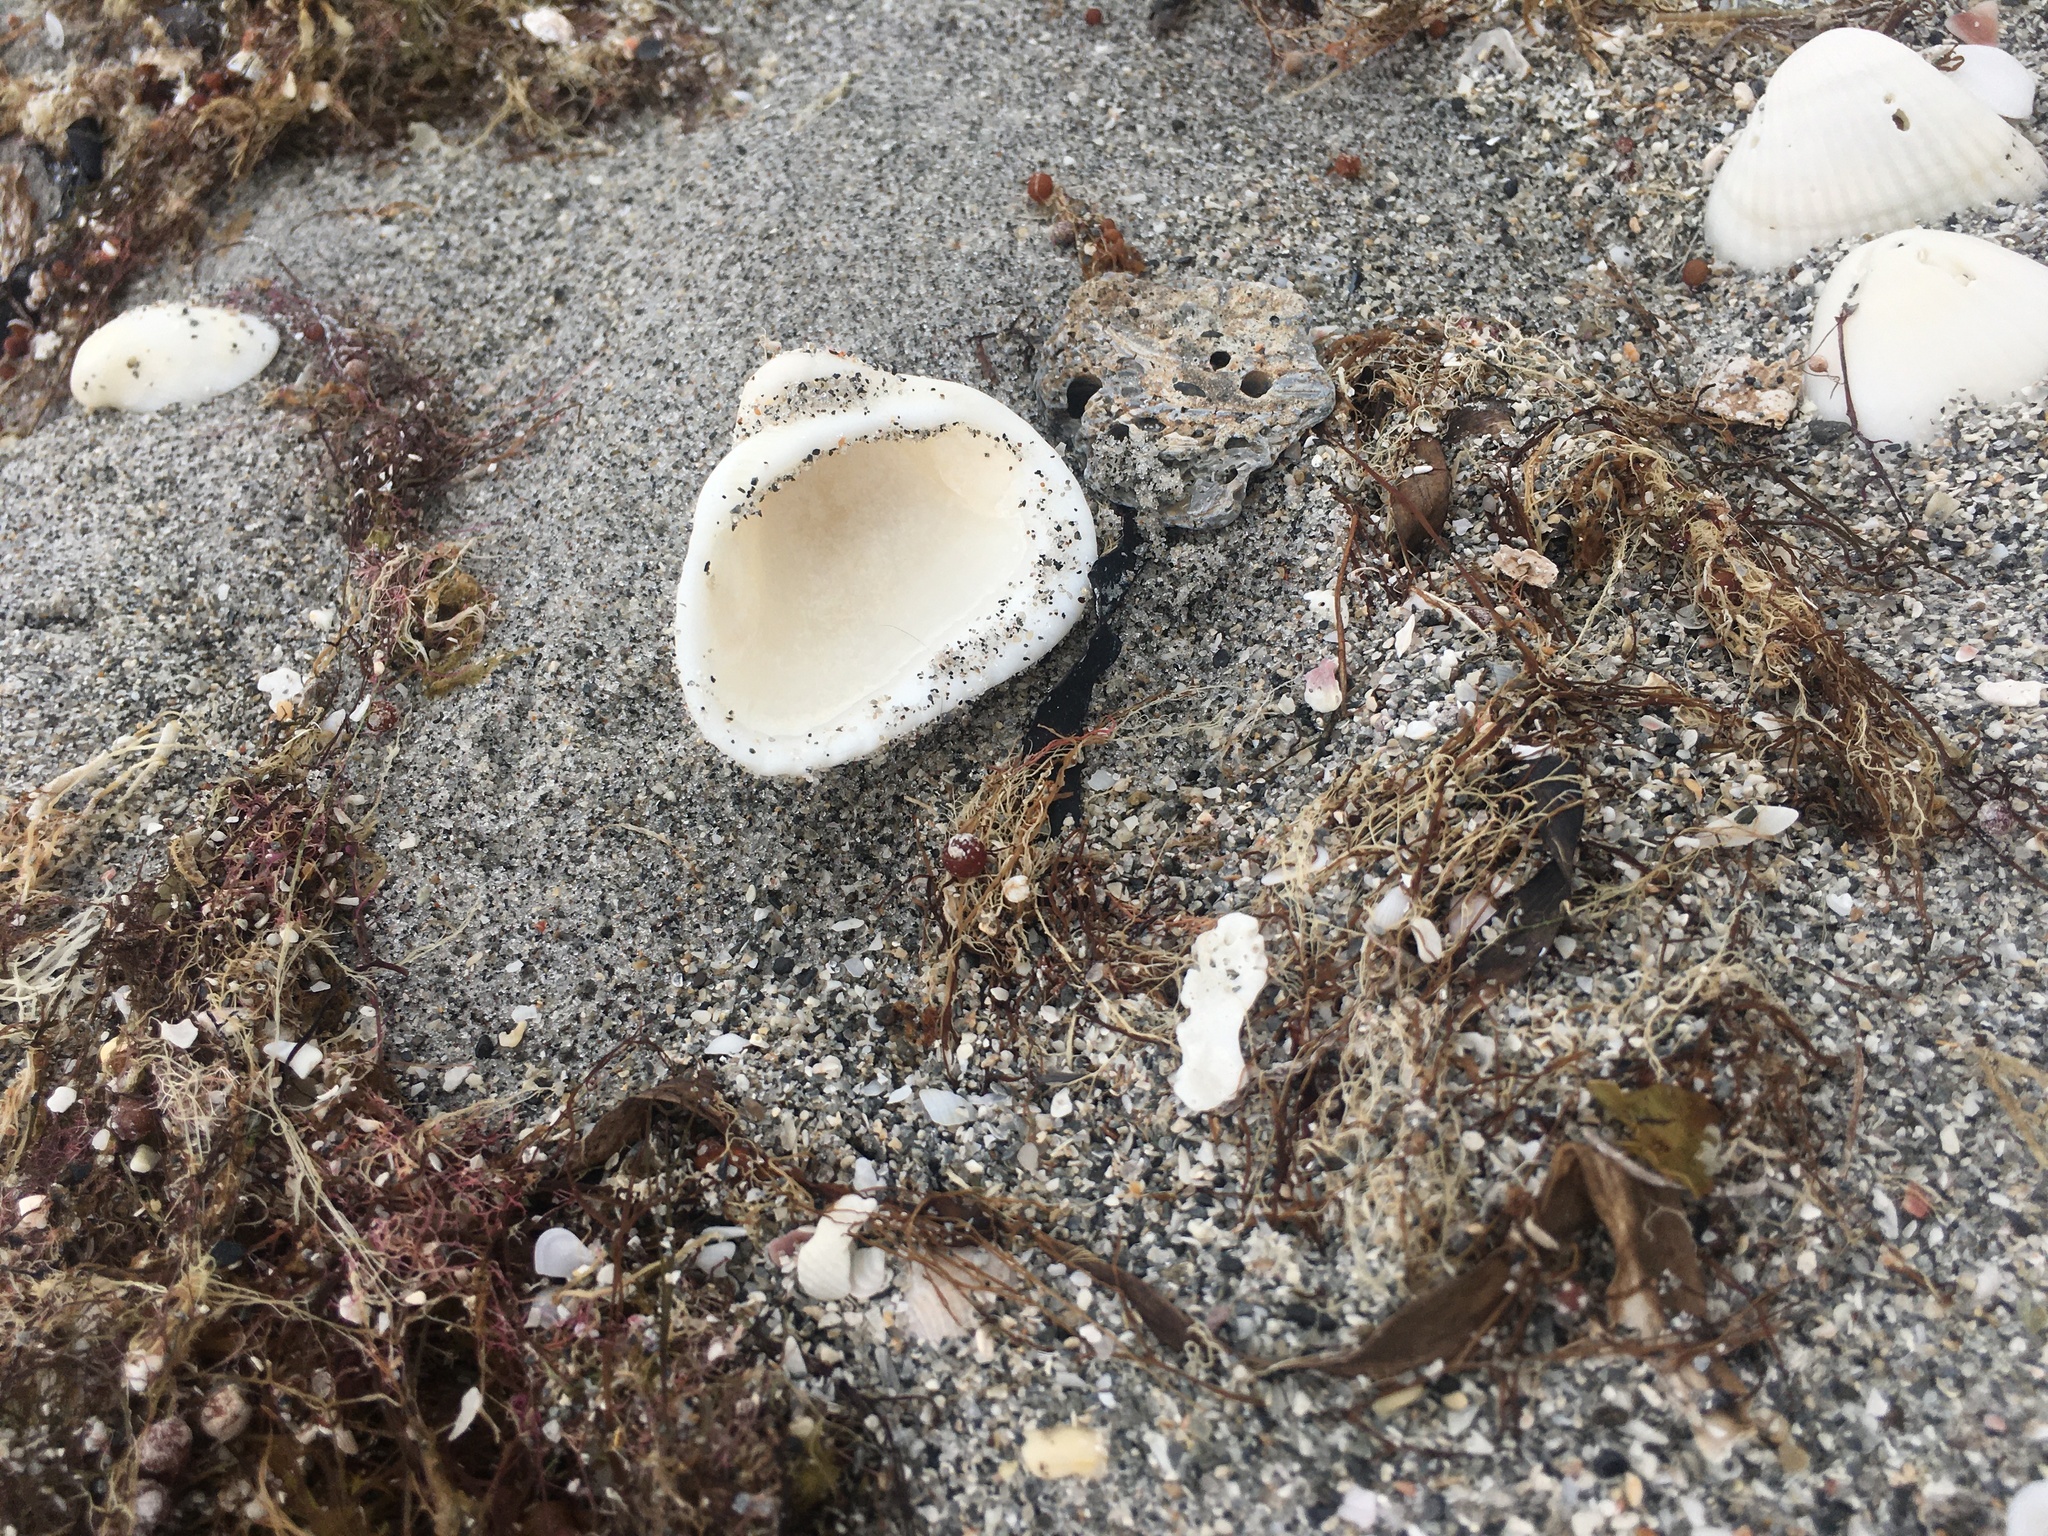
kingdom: Animalia
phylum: Mollusca
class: Bivalvia
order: Arcida
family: Noetiidae
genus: Noetia
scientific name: Noetia ponderosa
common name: Ponderous ark
